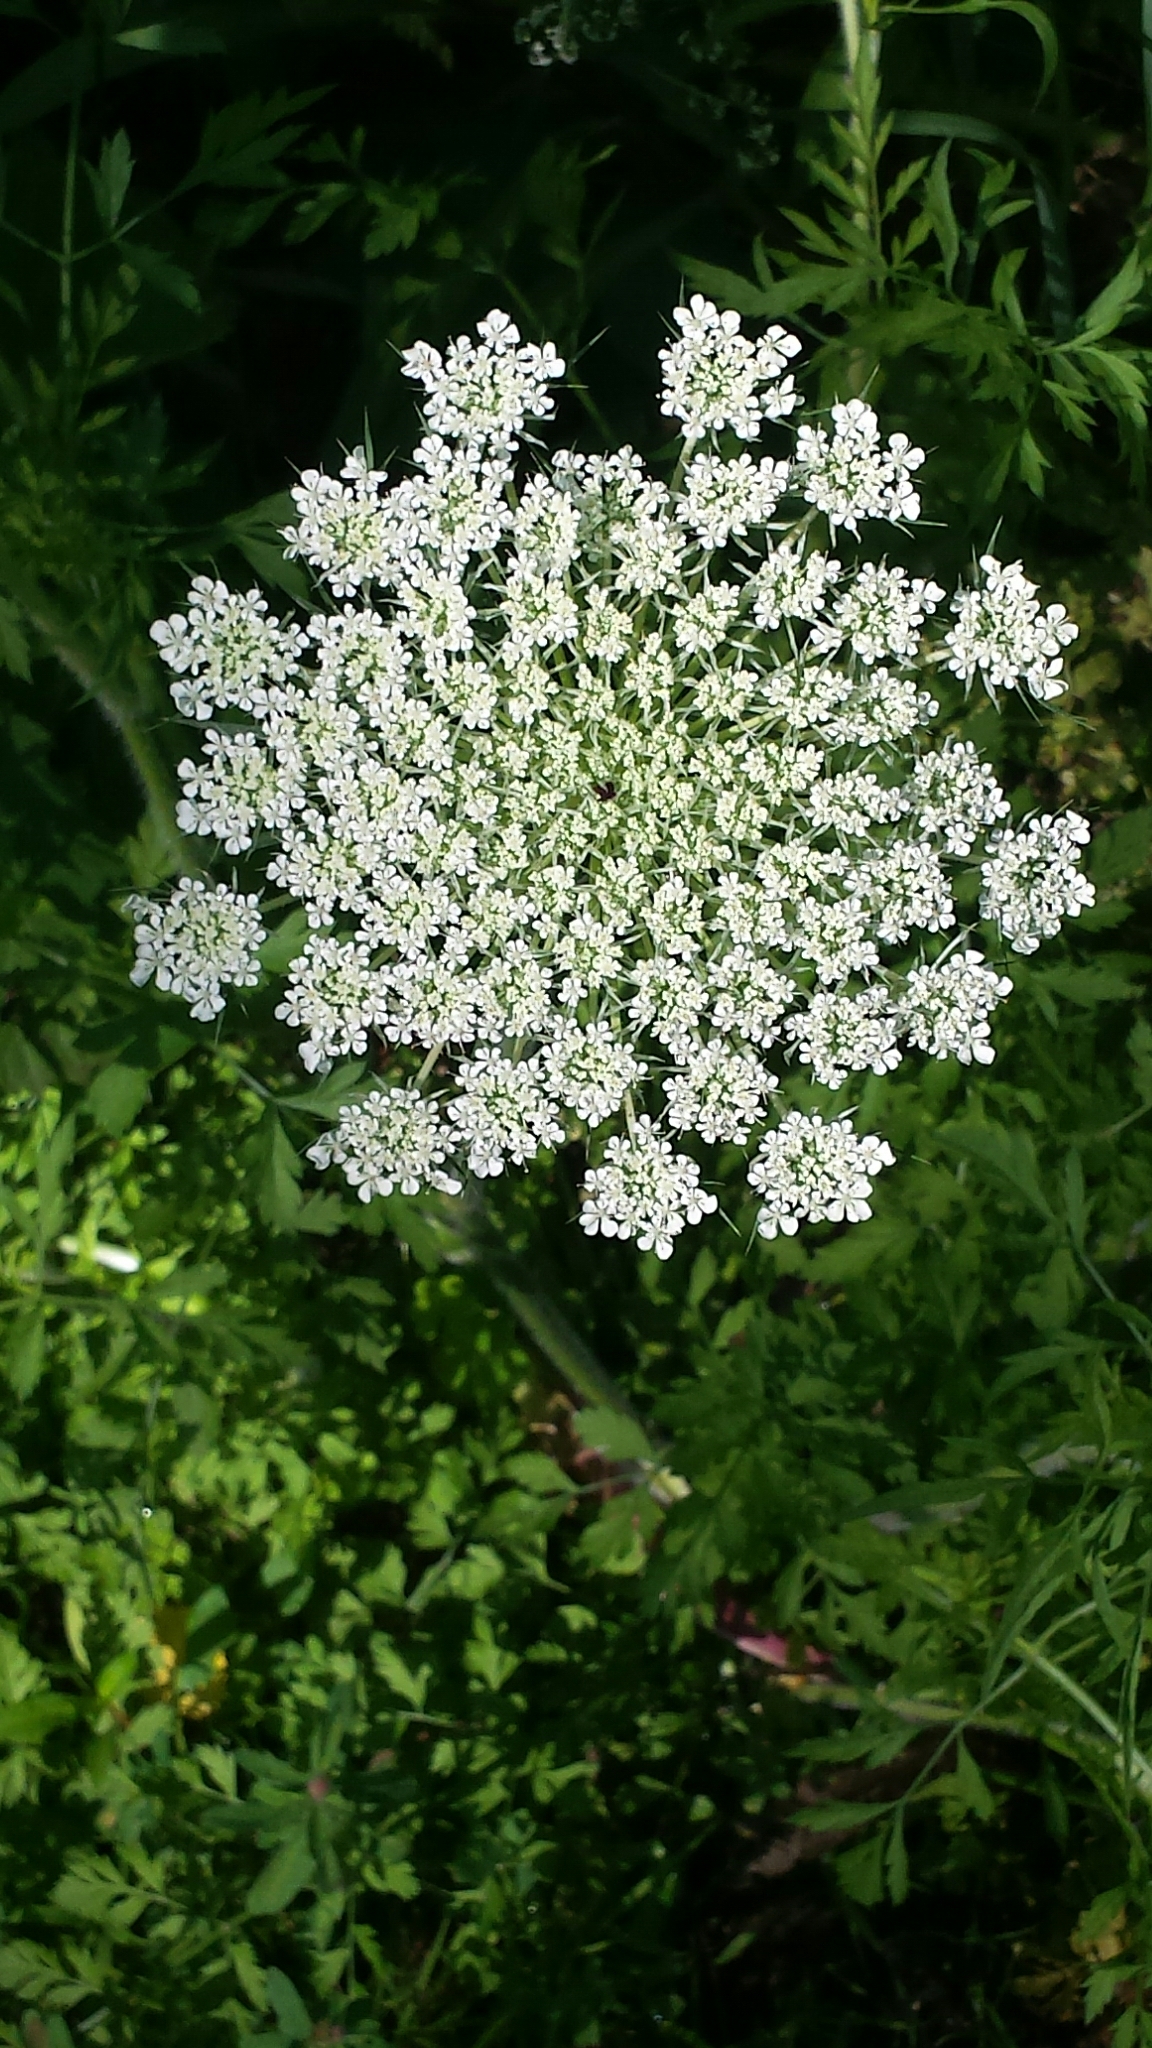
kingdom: Plantae
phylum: Tracheophyta
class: Magnoliopsida
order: Apiales
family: Apiaceae
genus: Daucus
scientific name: Daucus carota
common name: Wild carrot
